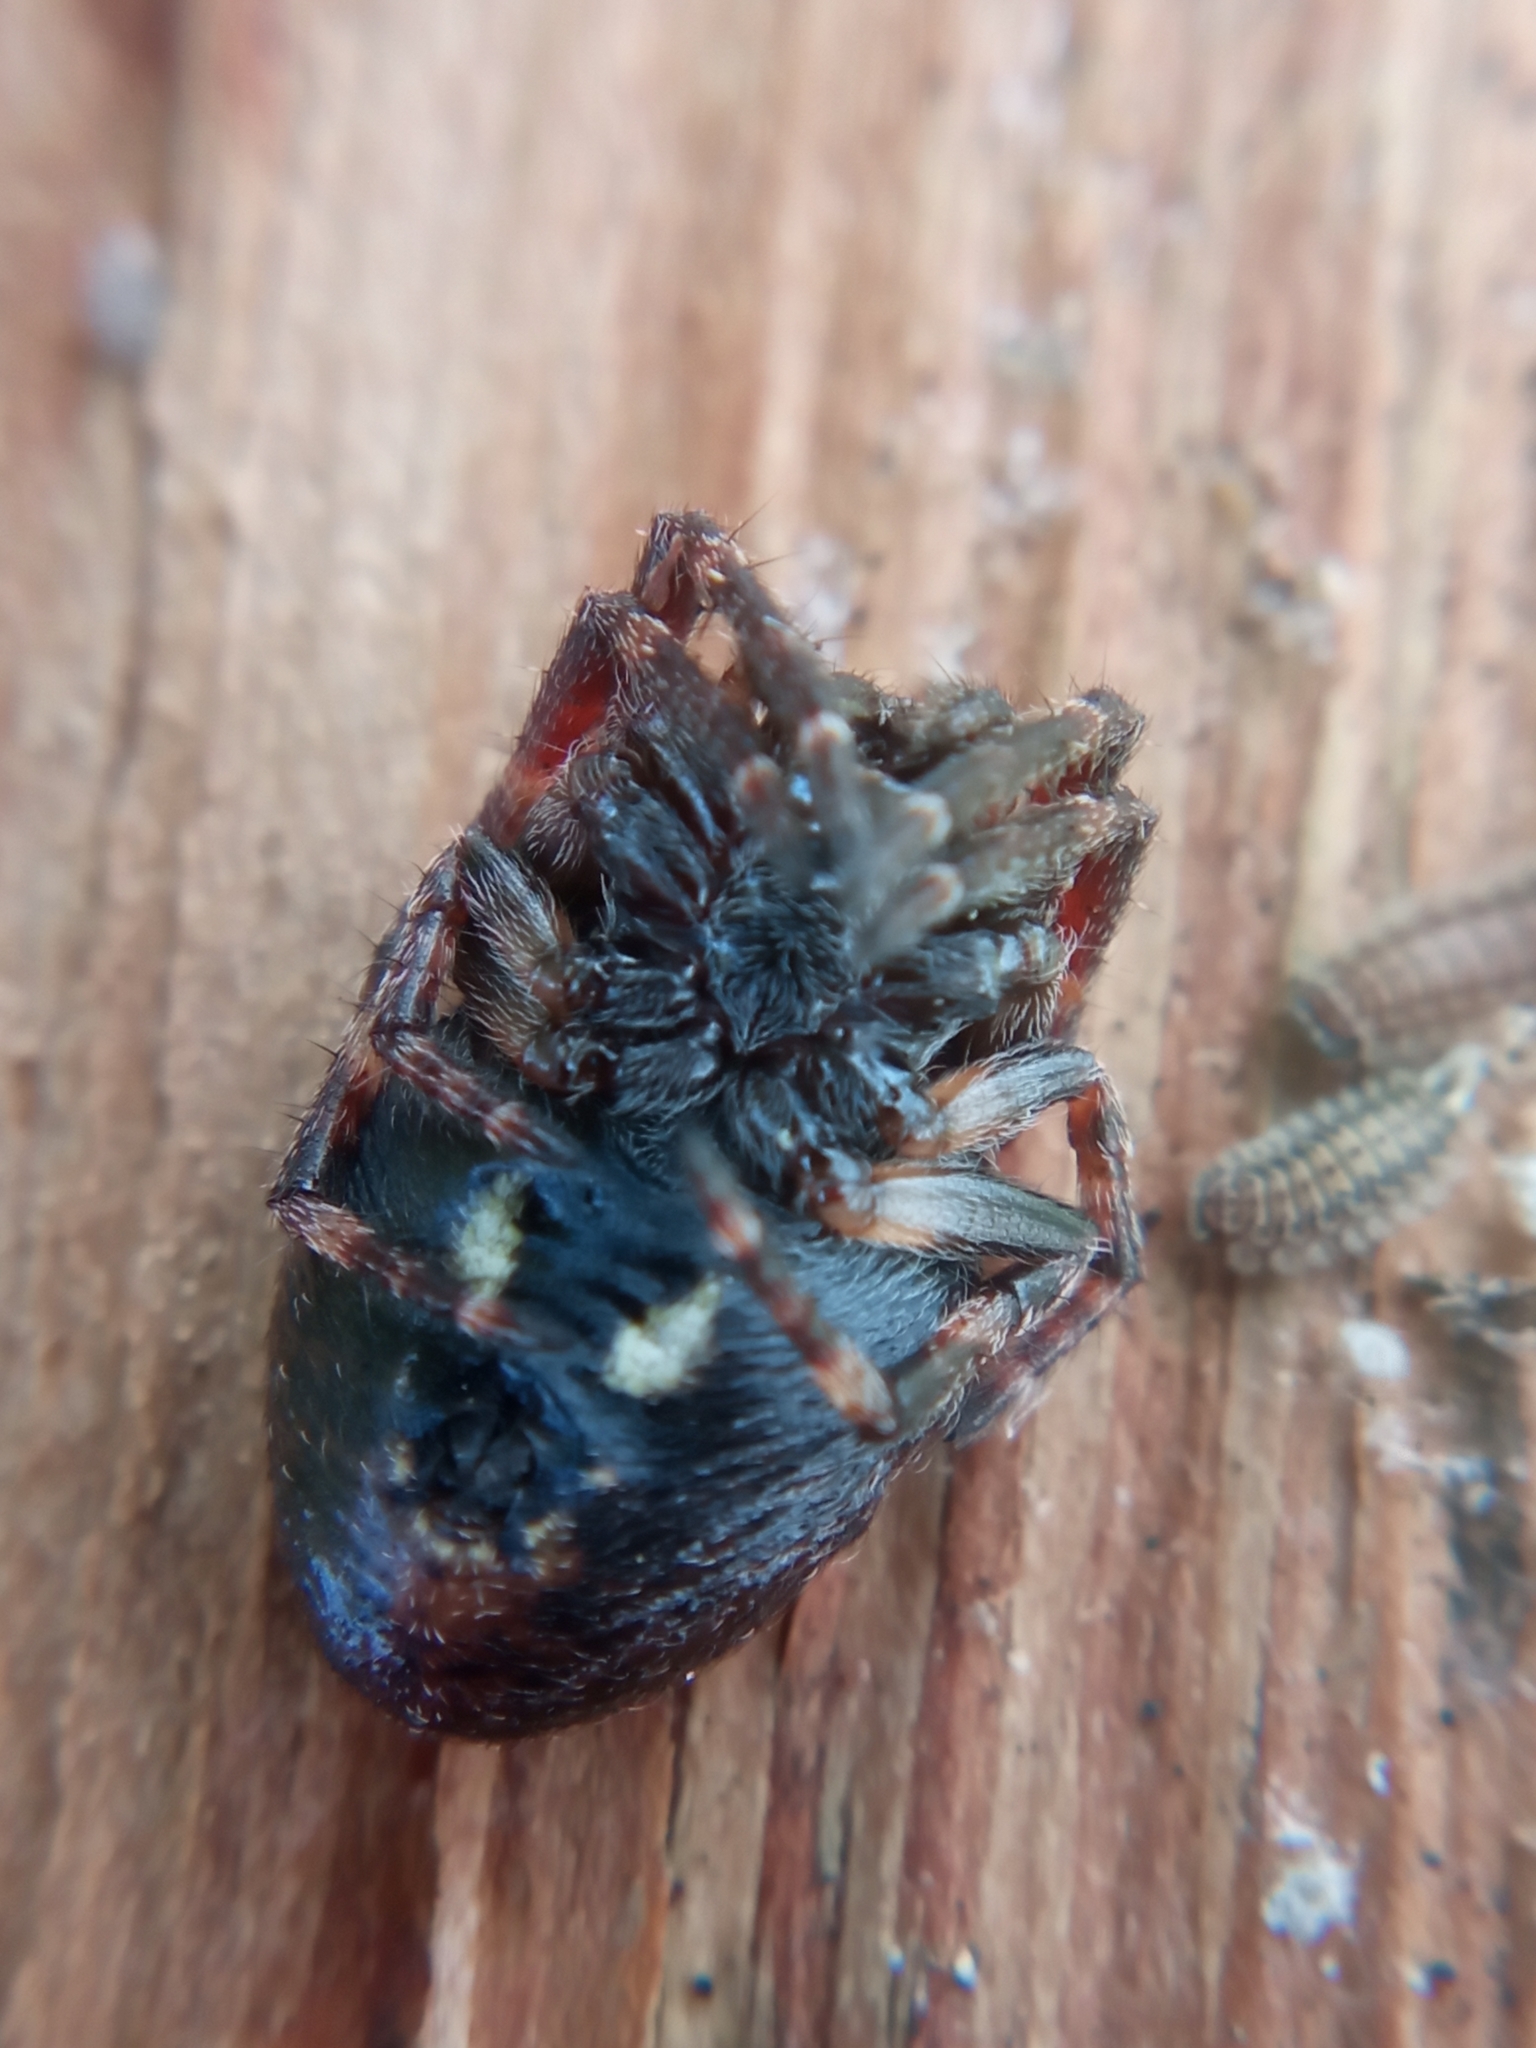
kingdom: Animalia
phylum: Arthropoda
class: Arachnida
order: Araneae
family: Araneidae
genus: Nuctenea
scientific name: Nuctenea umbratica
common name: Toad spider
